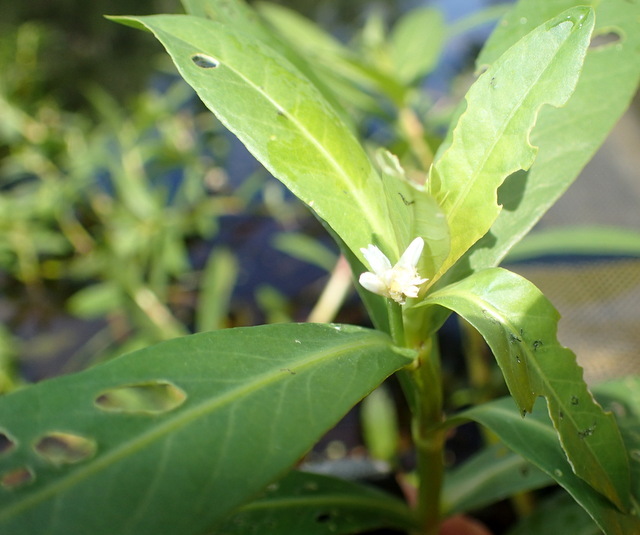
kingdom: Plantae
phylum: Tracheophyta
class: Magnoliopsida
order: Caryophyllales
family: Amaranthaceae
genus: Alternanthera
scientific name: Alternanthera philoxeroides
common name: Alligatorweed
